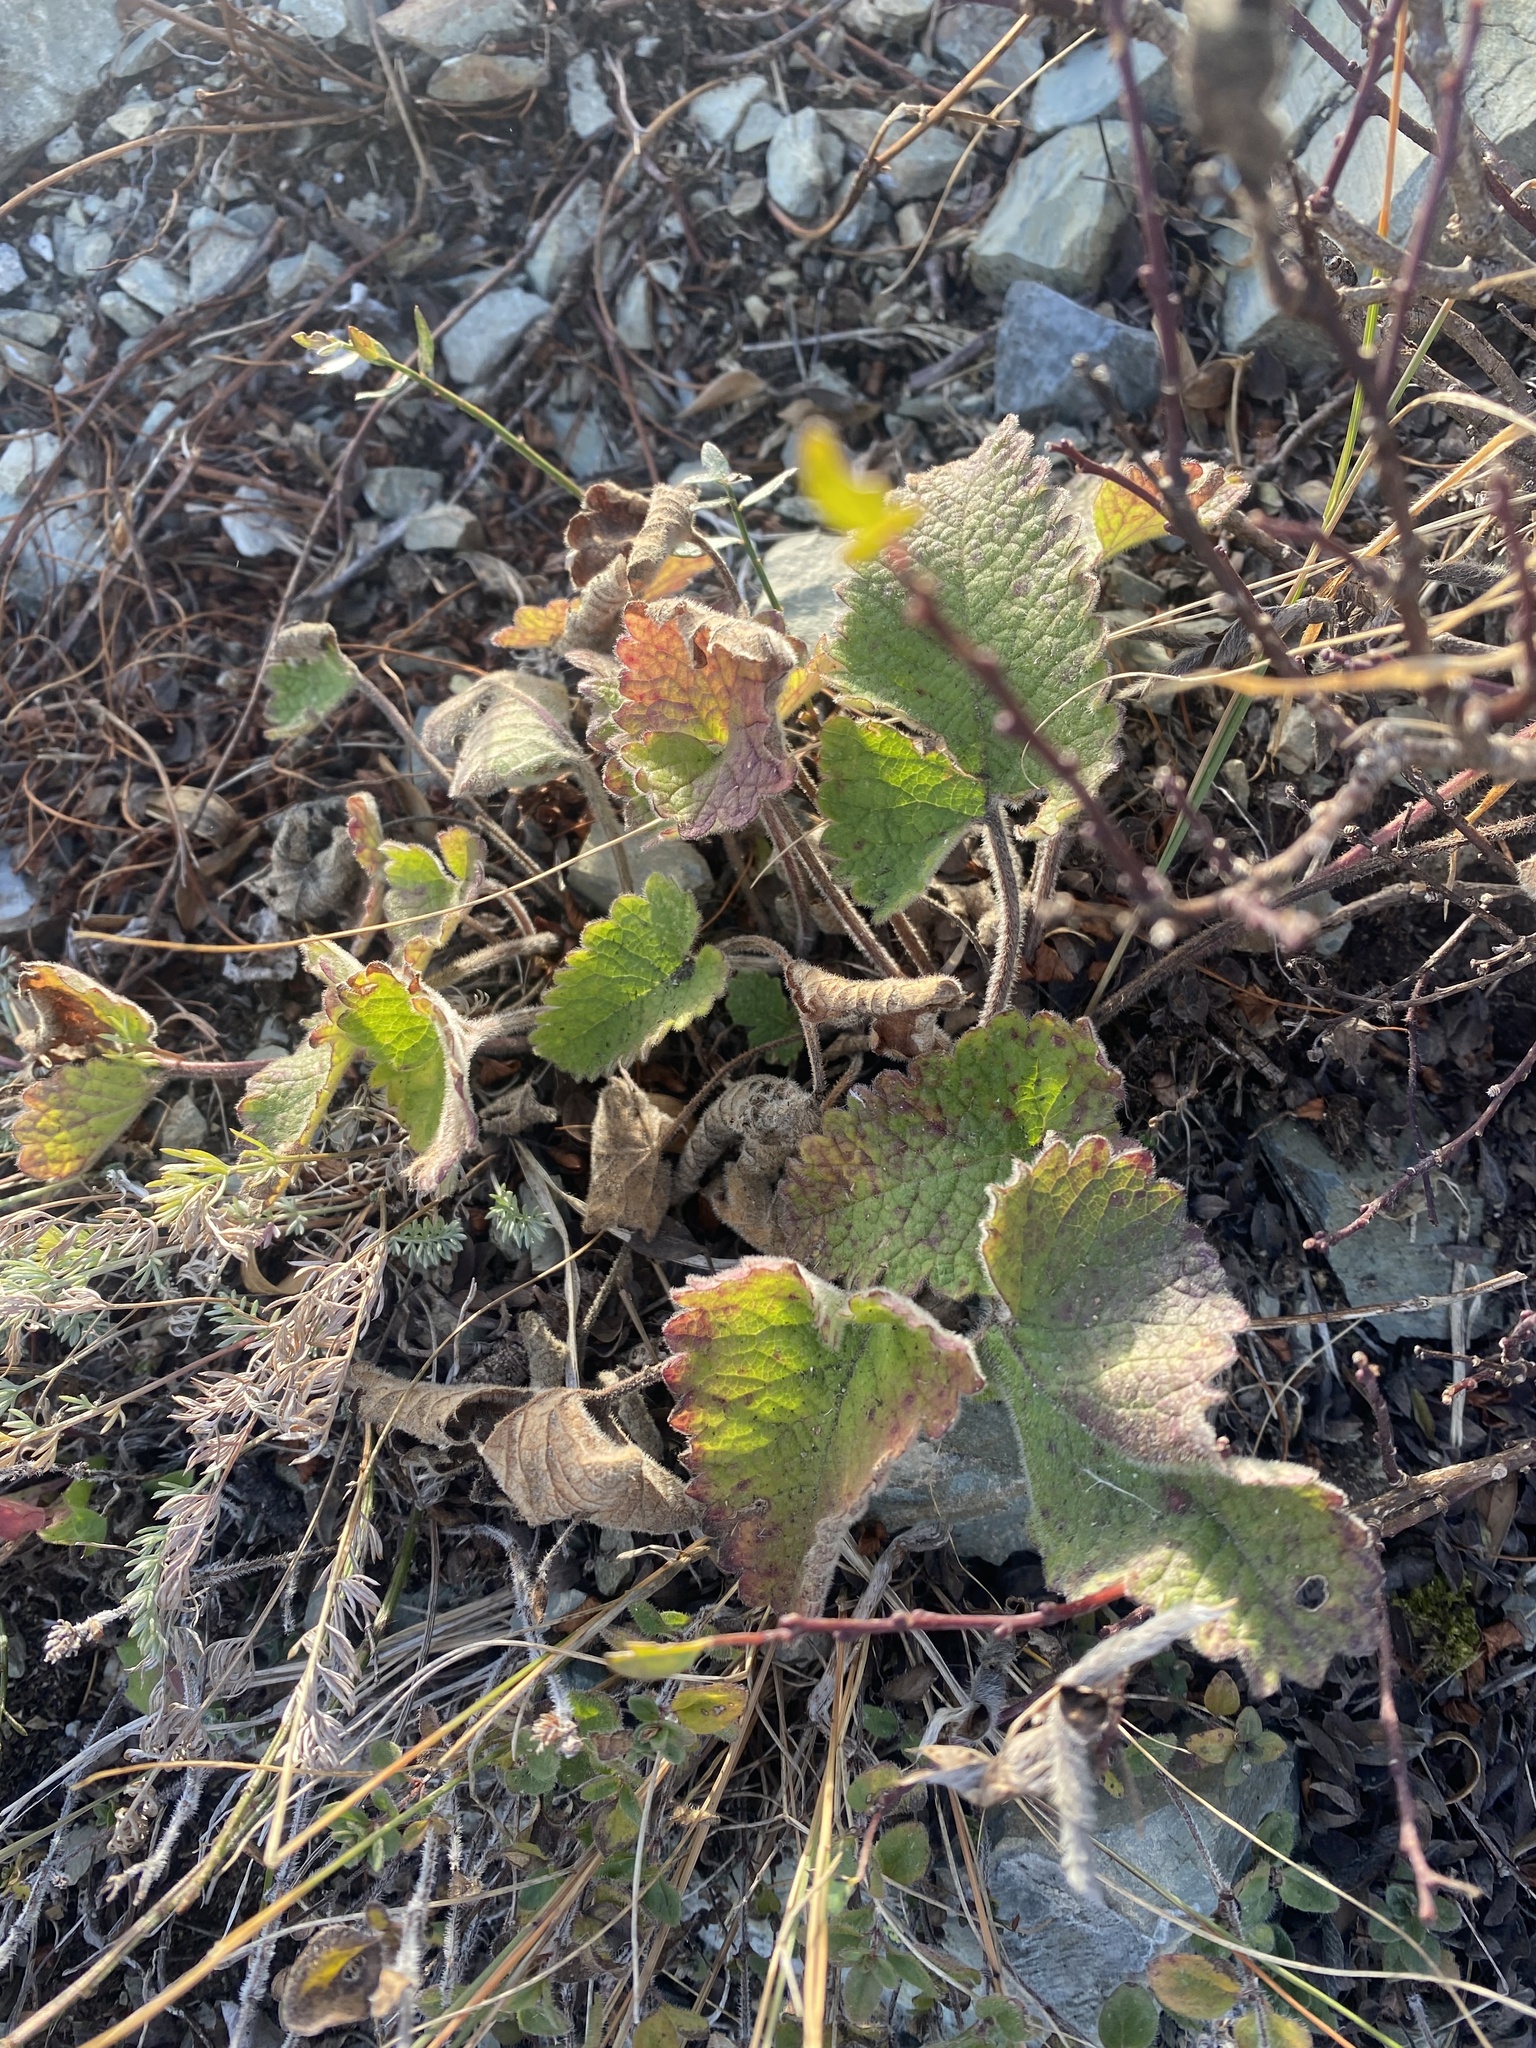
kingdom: Plantae
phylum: Tracheophyta
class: Magnoliopsida
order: Lamiales
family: Lamiaceae
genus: Betonica
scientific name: Betonica macrantha
